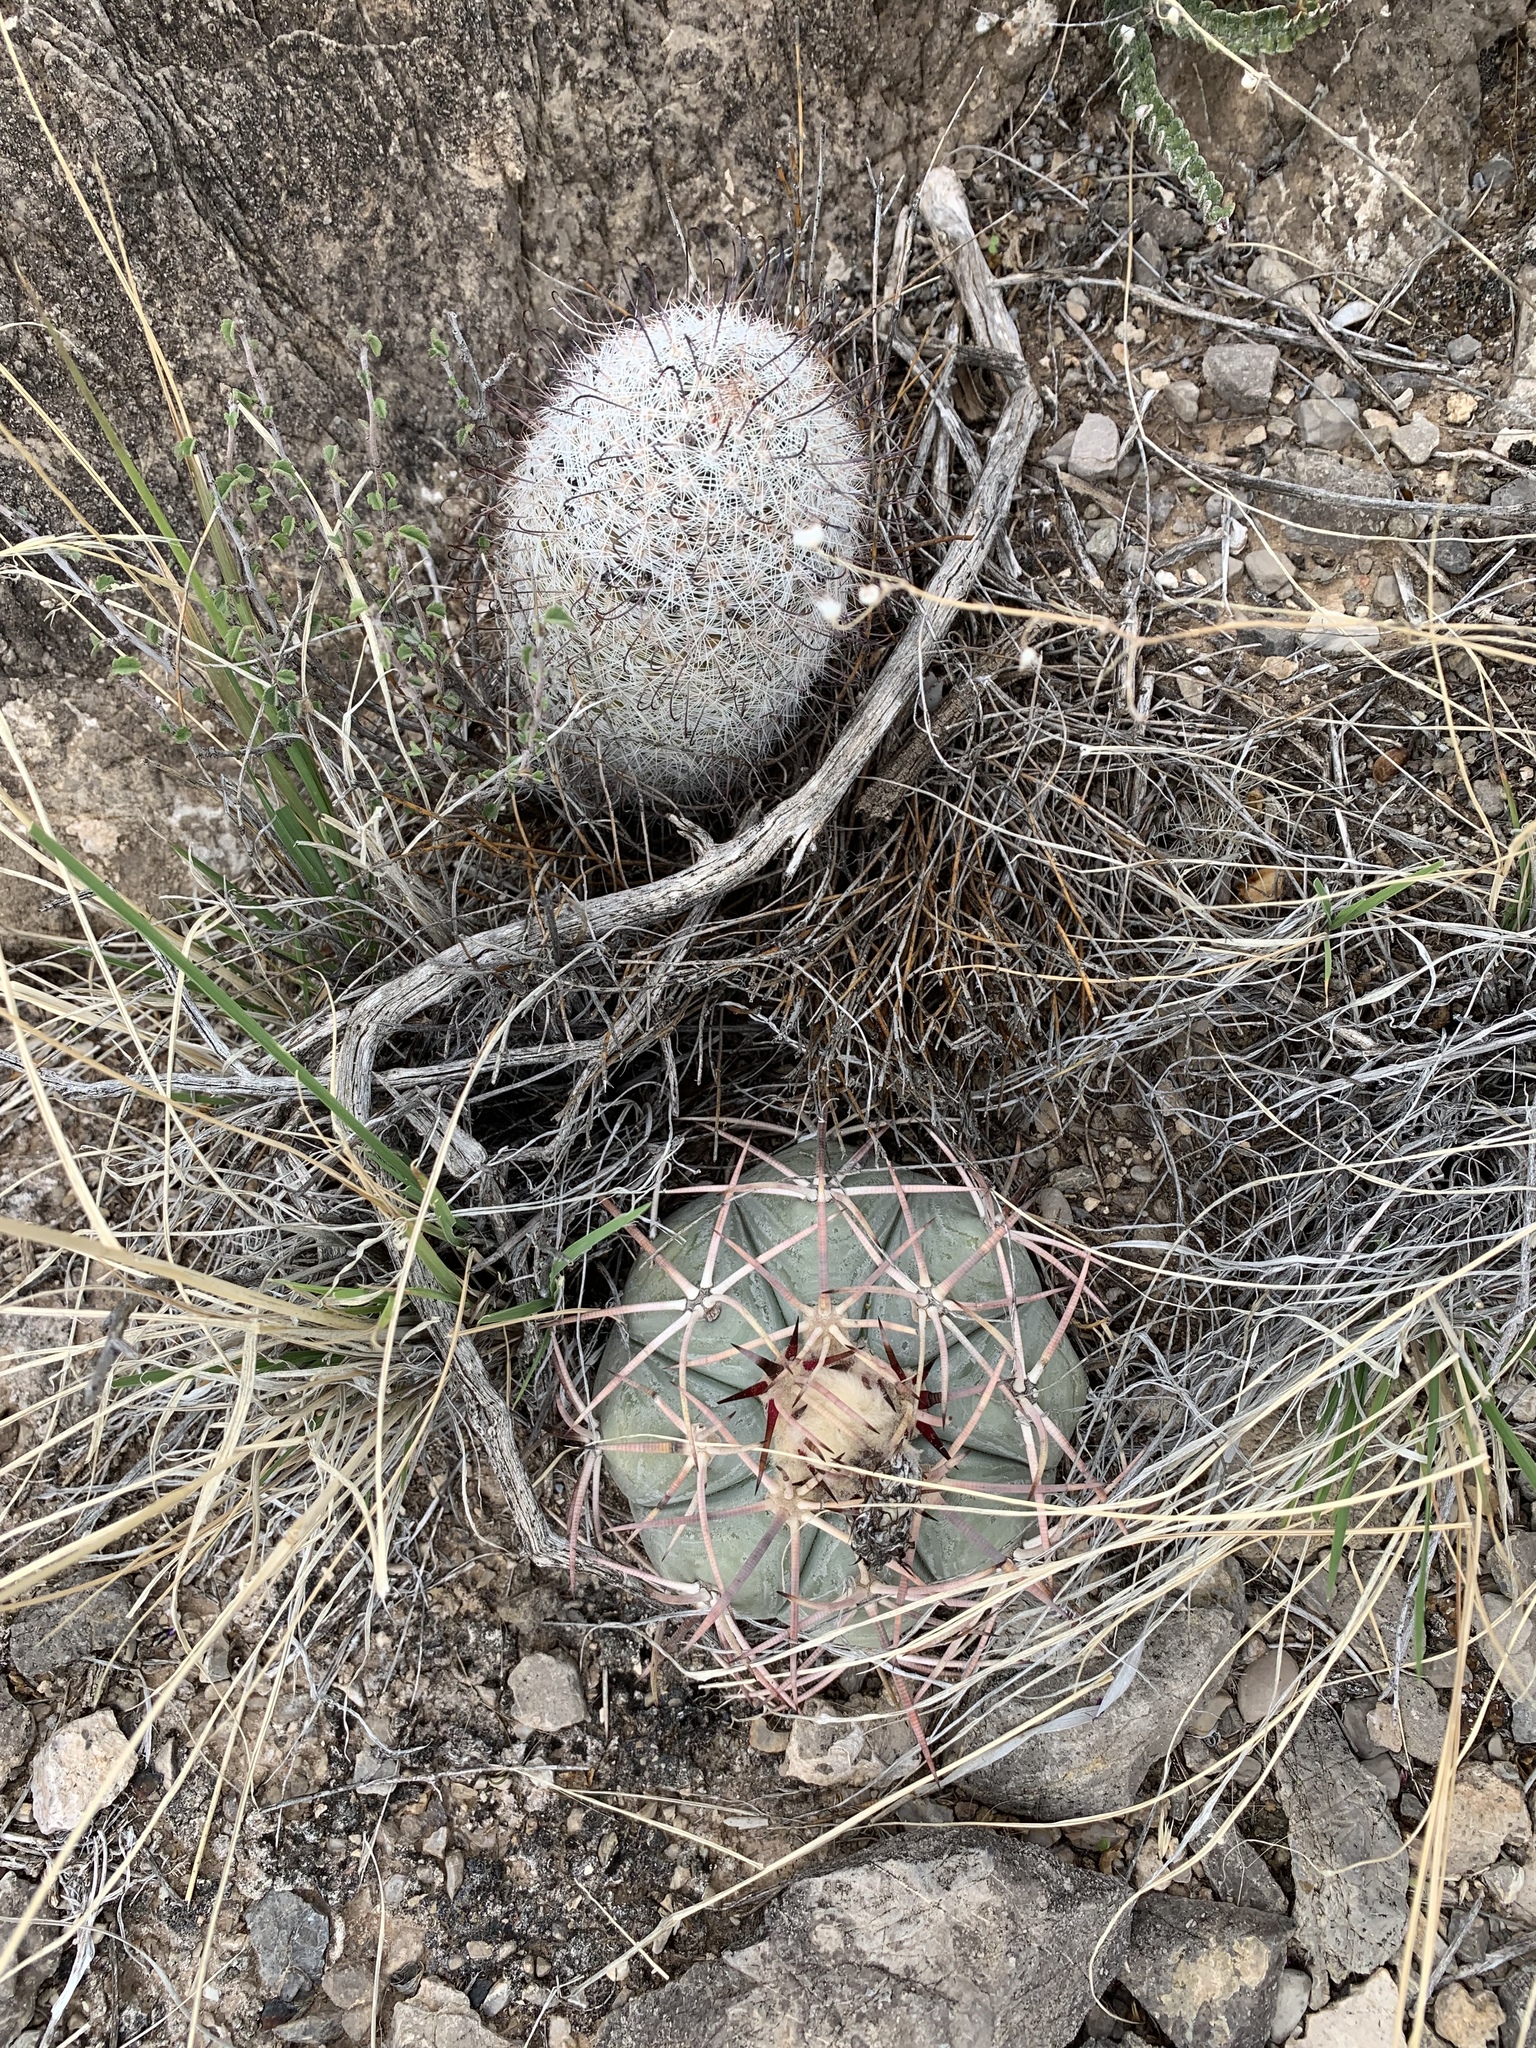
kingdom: Plantae
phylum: Tracheophyta
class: Magnoliopsida
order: Caryophyllales
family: Cactaceae
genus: Cochemiea
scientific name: Cochemiea grahamii
